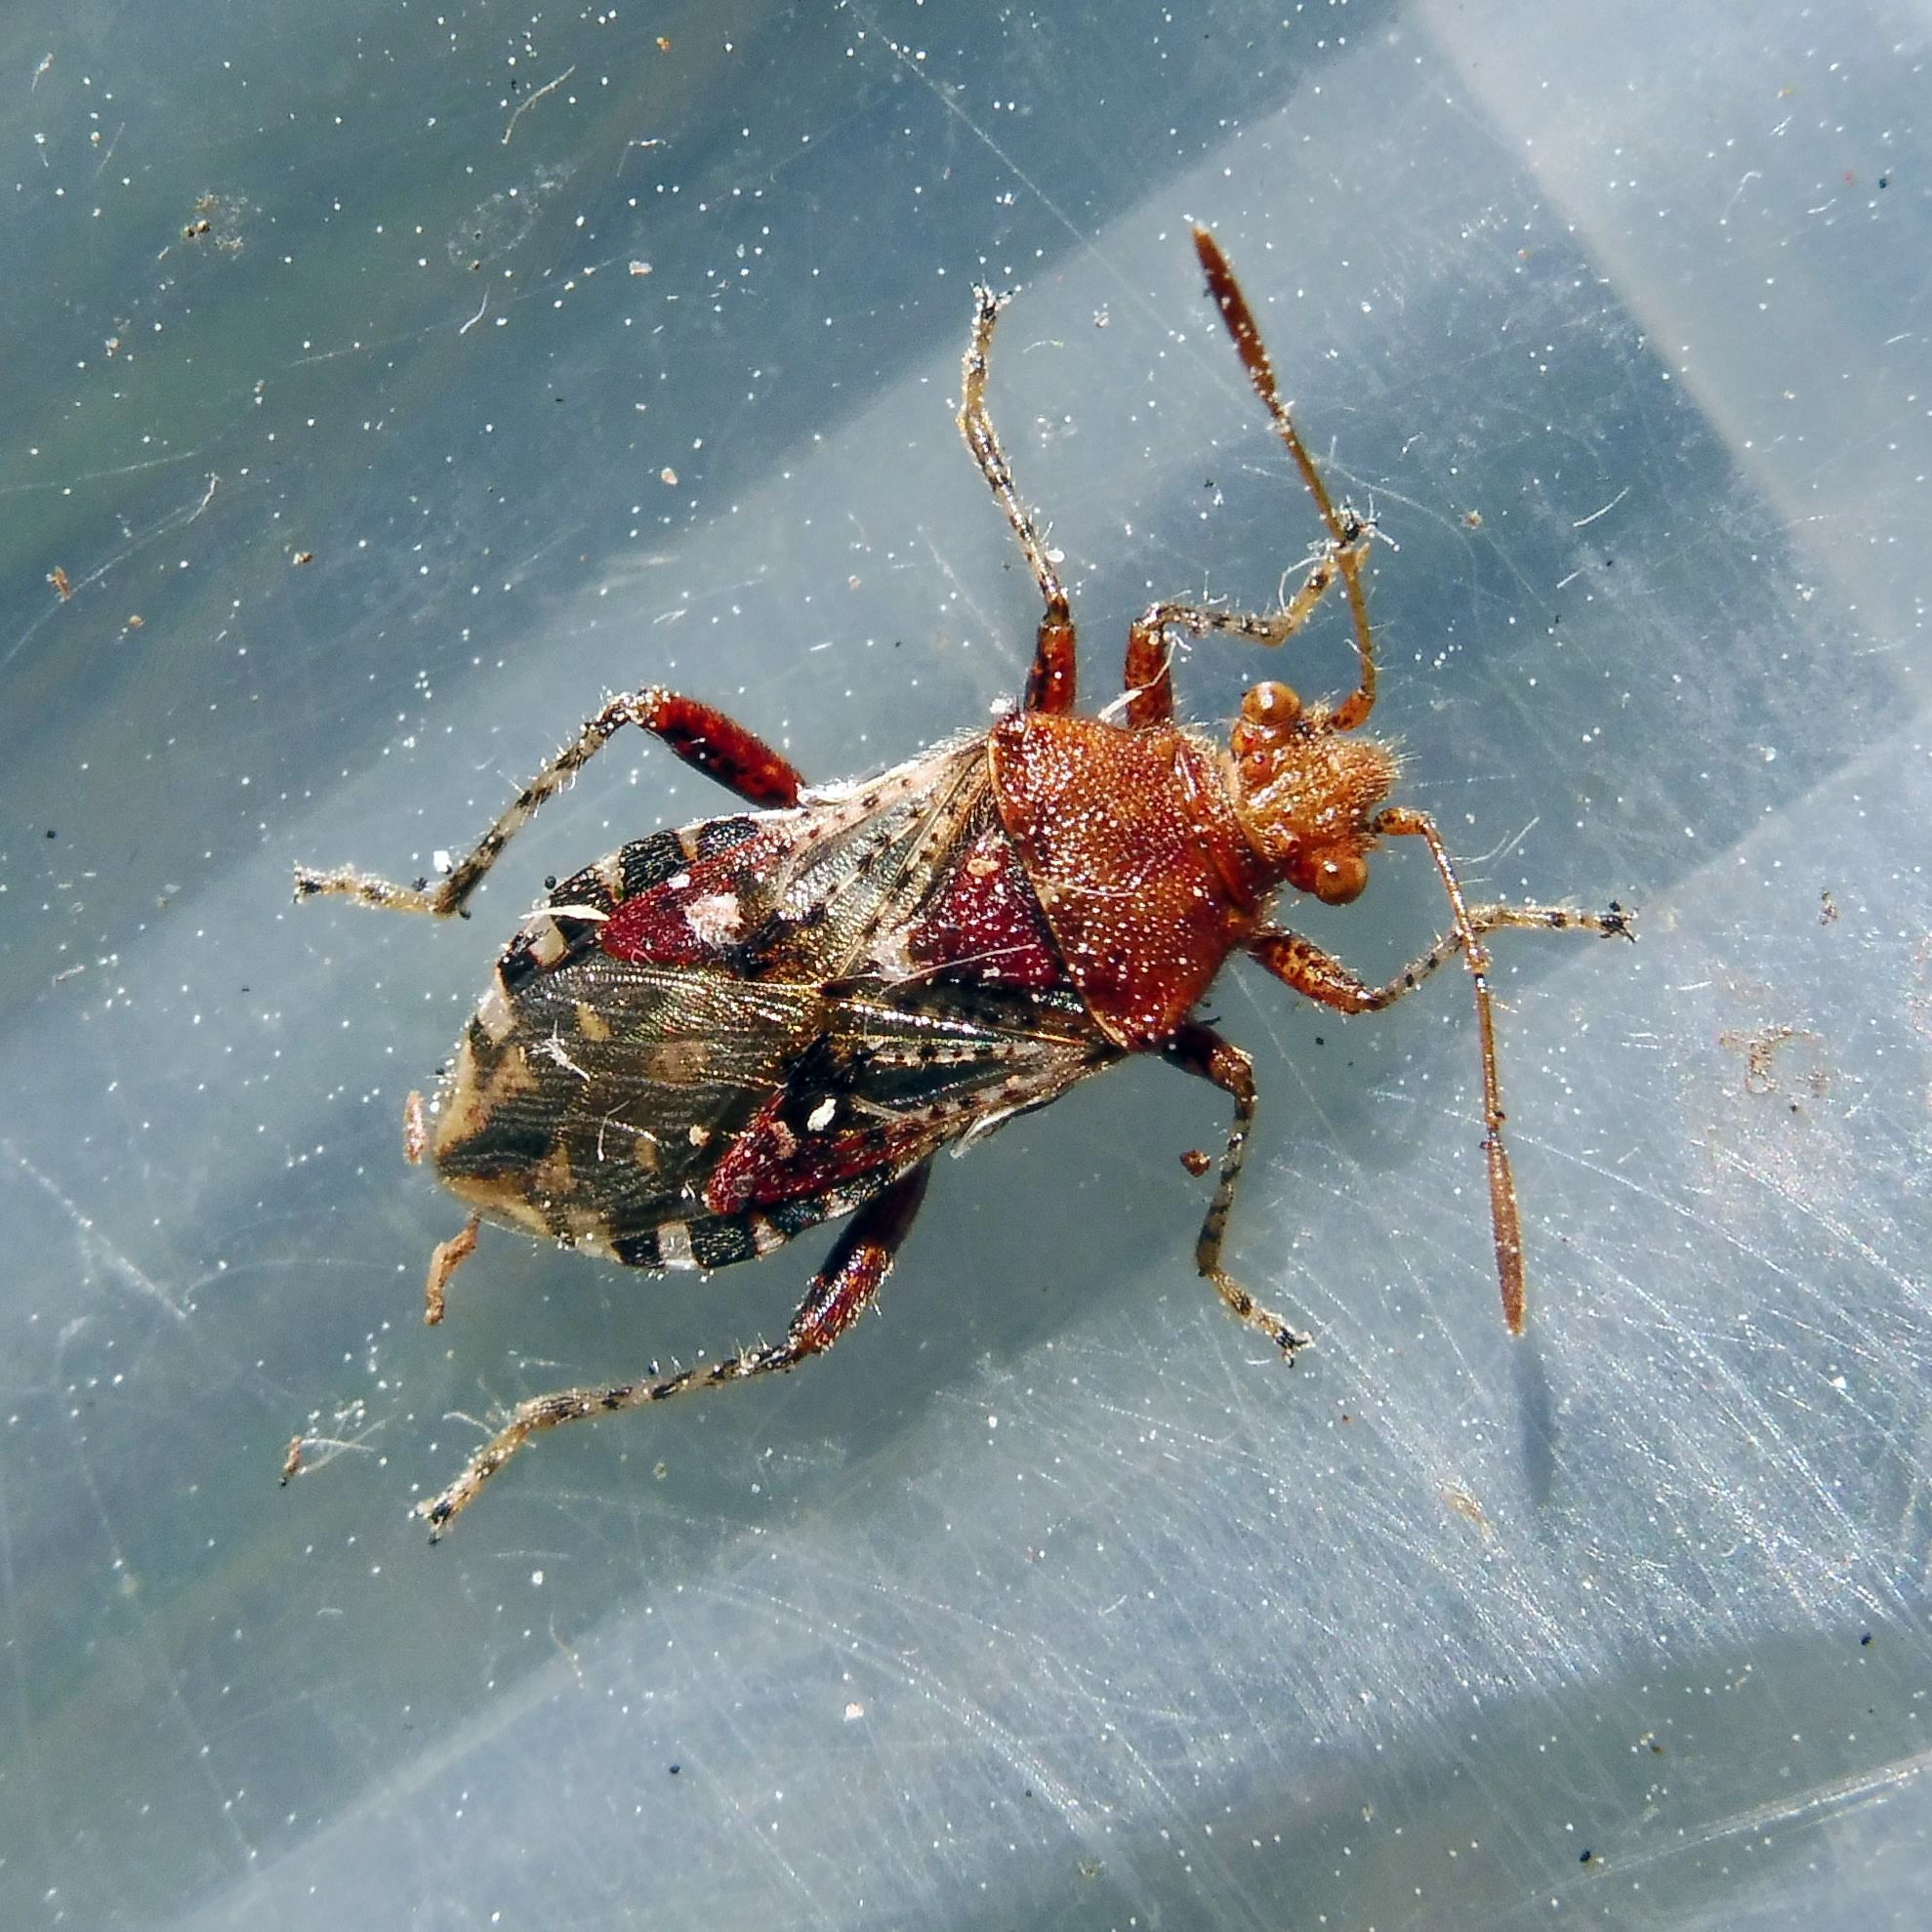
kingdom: Animalia
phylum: Arthropoda
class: Insecta
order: Hemiptera
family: Rhopalidae
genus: Rhopalus
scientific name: Rhopalus subrufus
